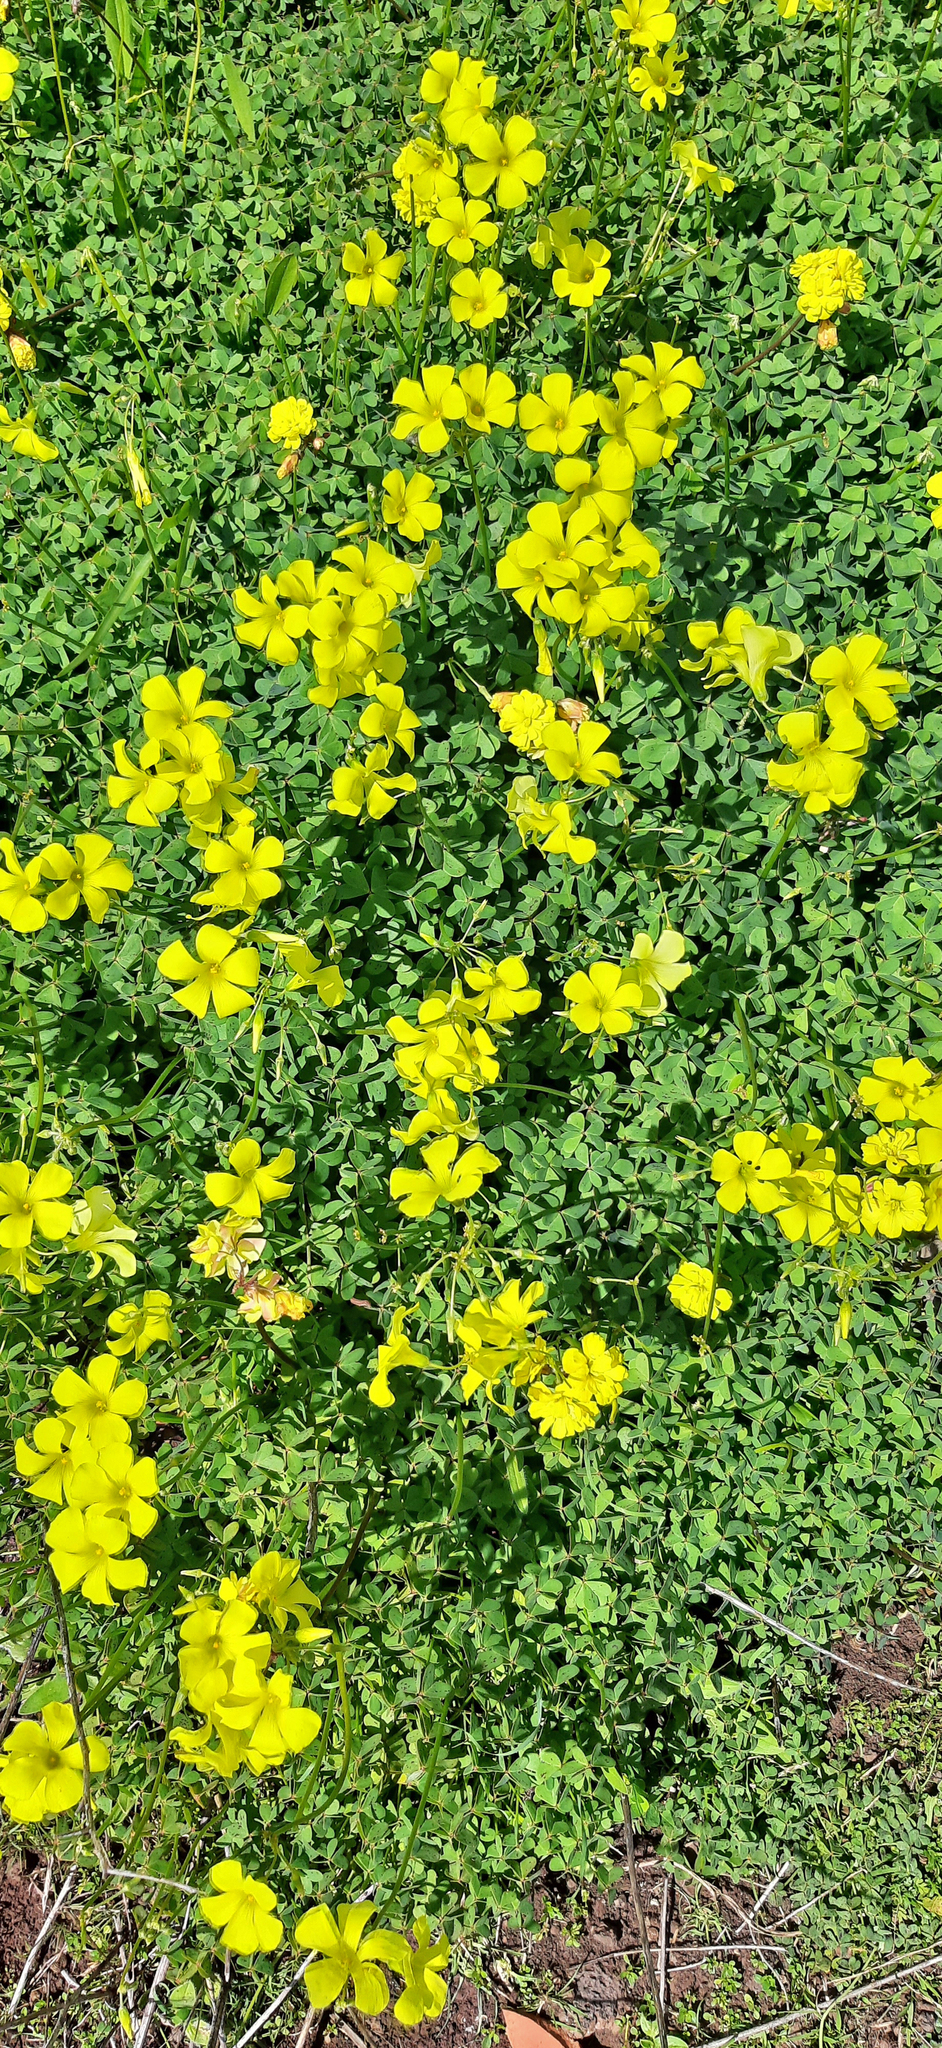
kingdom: Plantae
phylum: Tracheophyta
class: Magnoliopsida
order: Oxalidales
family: Oxalidaceae
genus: Oxalis
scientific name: Oxalis pes-caprae
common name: Bermuda-buttercup
